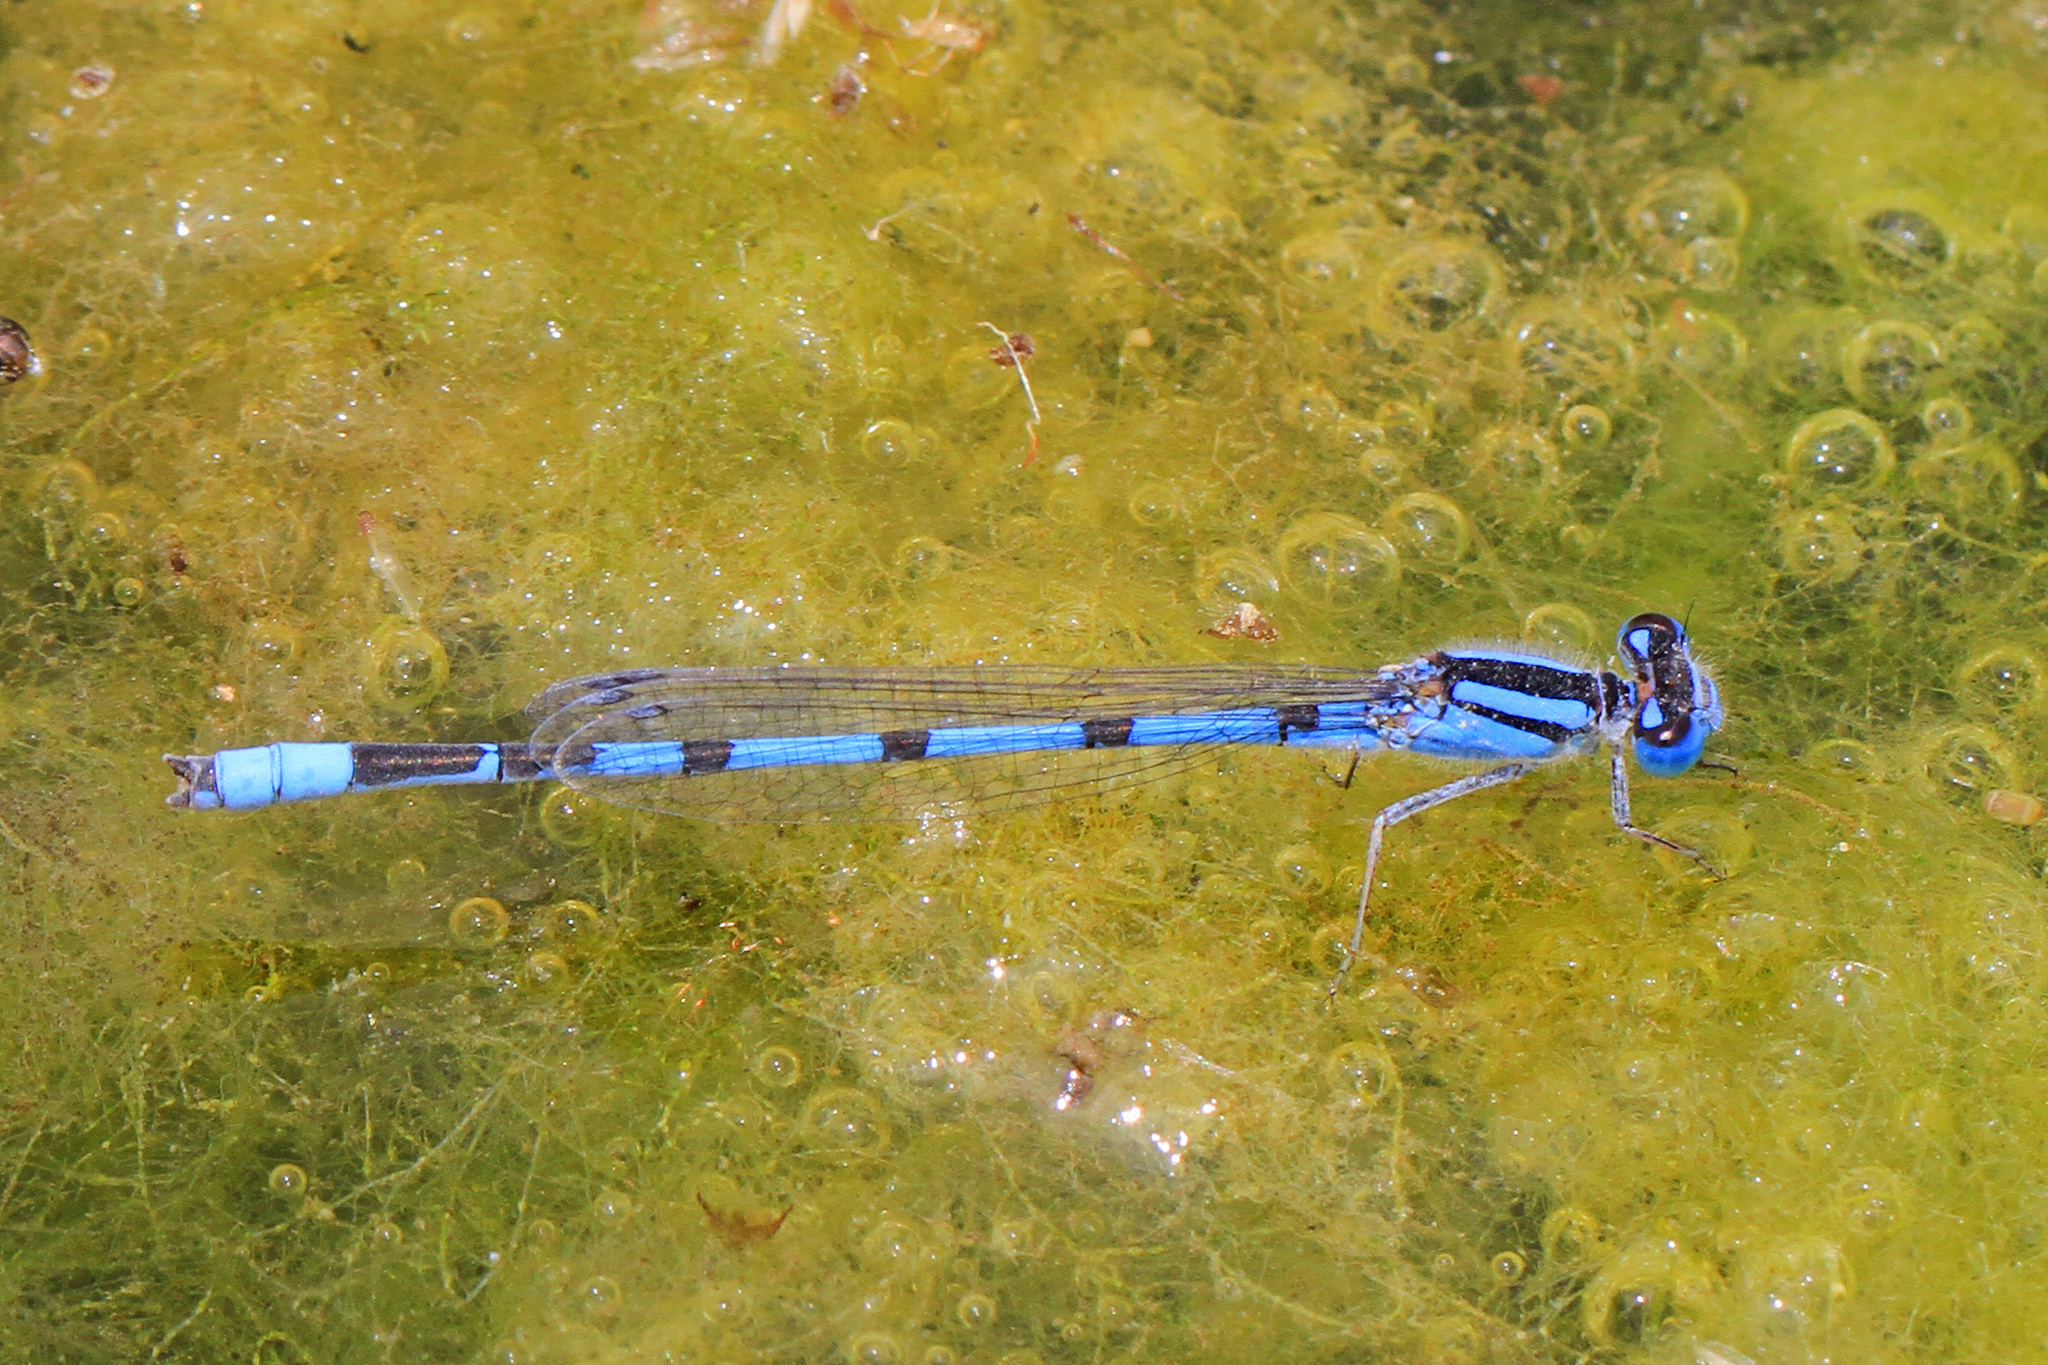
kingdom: Animalia
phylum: Arthropoda
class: Insecta
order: Odonata
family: Coenagrionidae
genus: Enallagma
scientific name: Enallagma civile
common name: Damselfly
